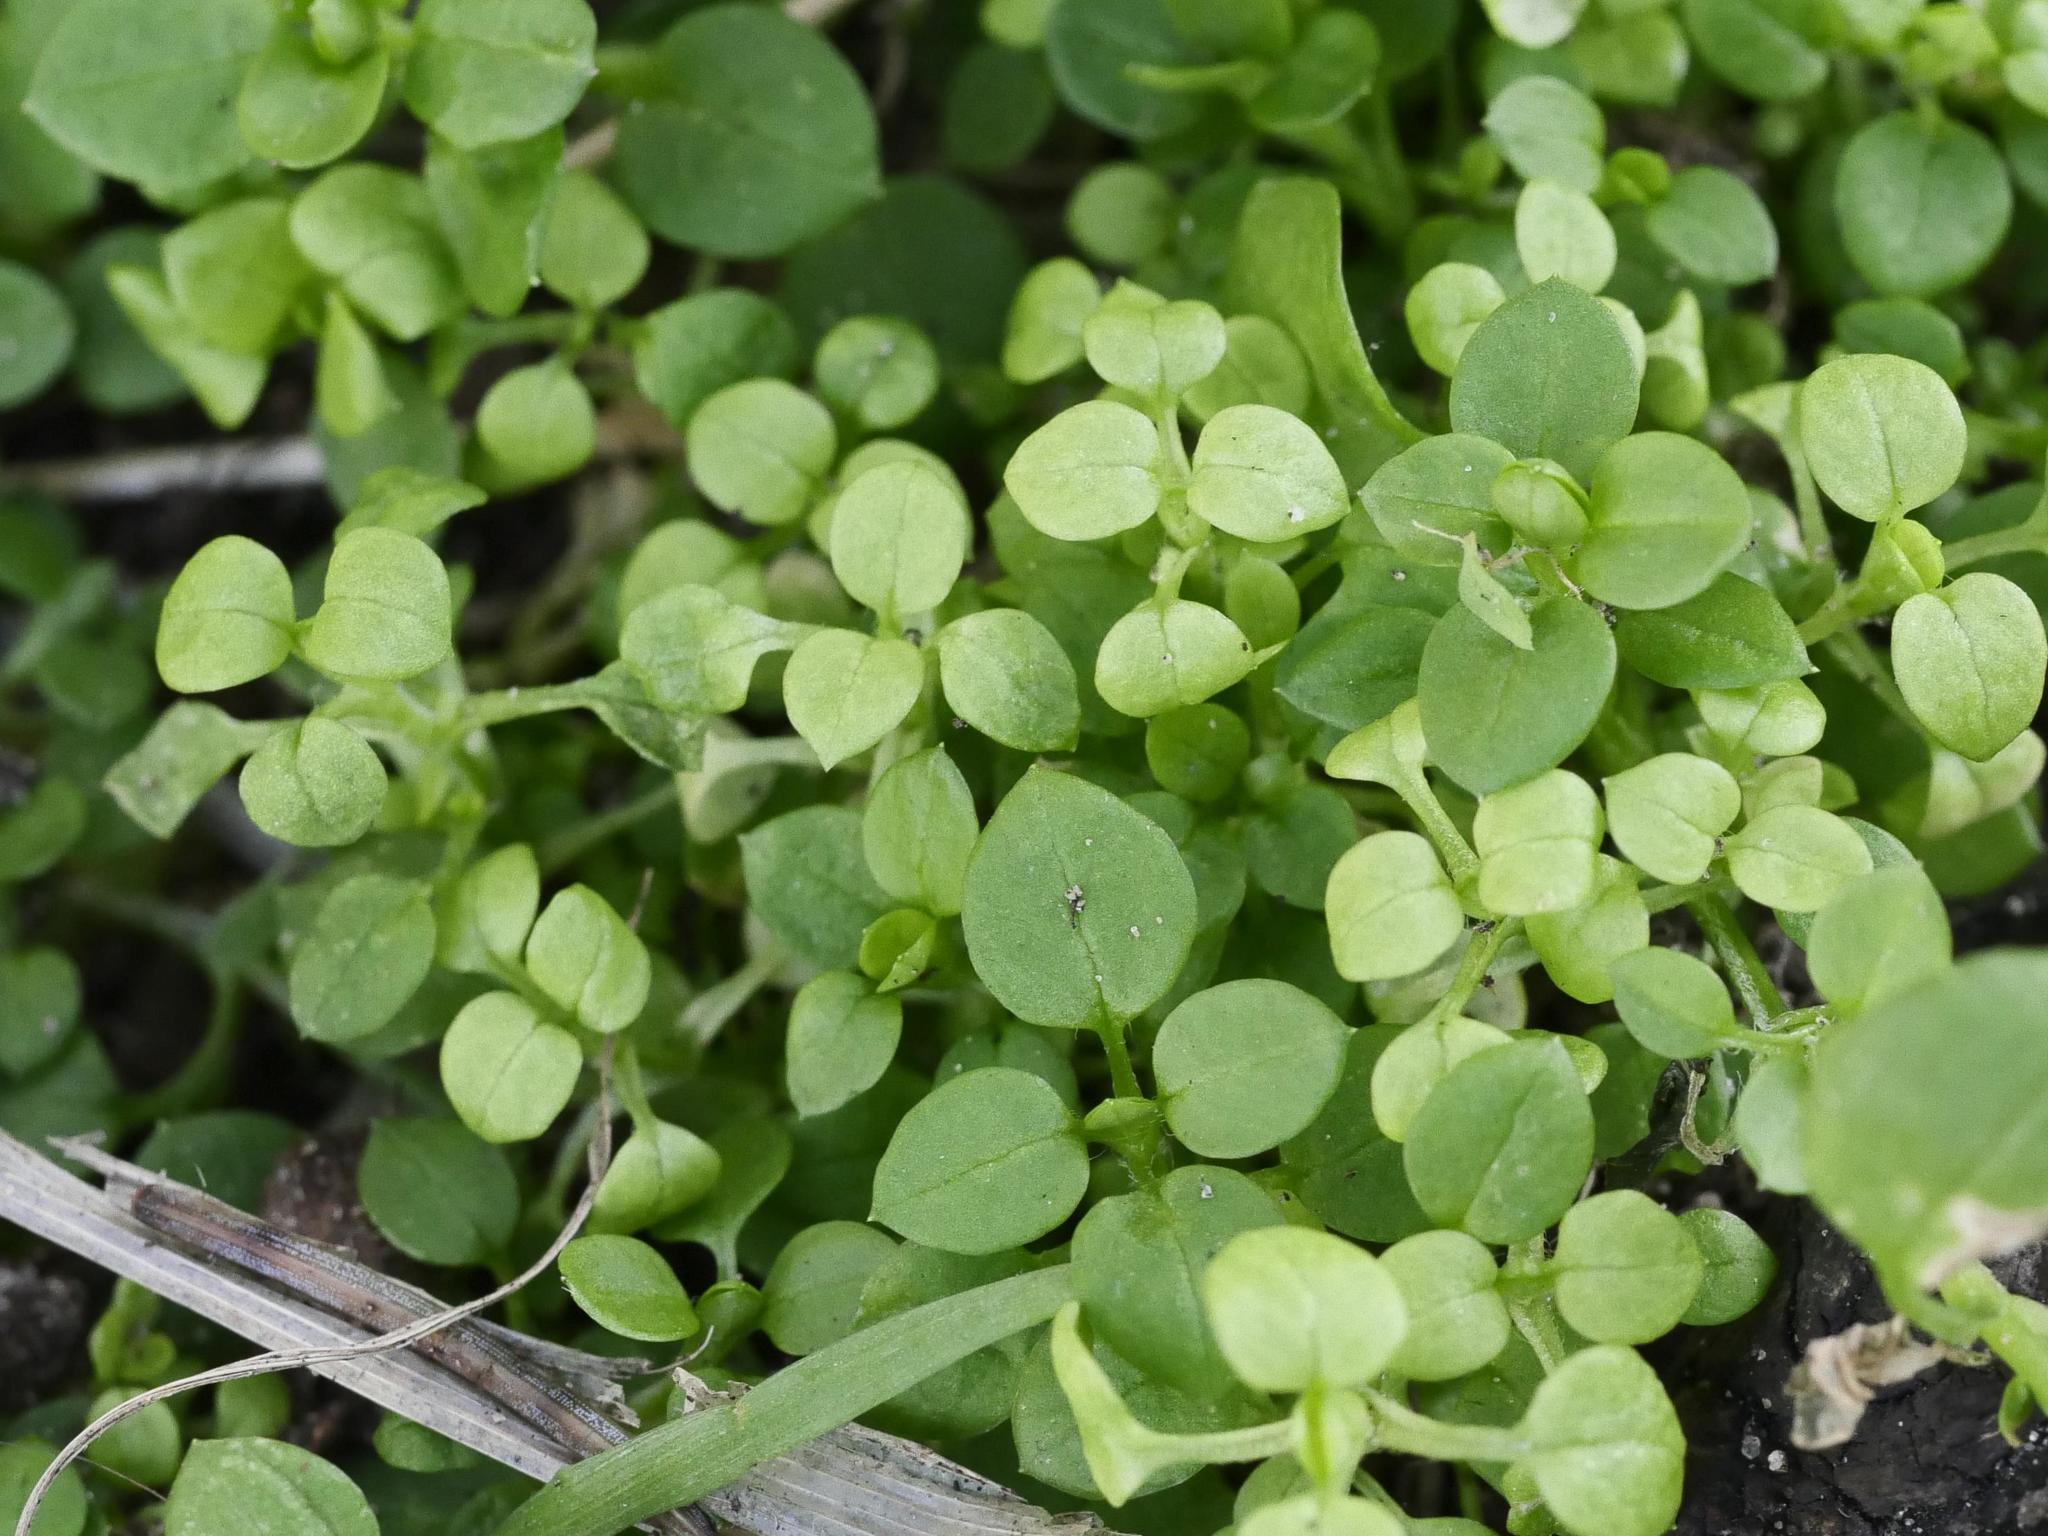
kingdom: Plantae
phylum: Tracheophyta
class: Magnoliopsida
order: Caryophyllales
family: Caryophyllaceae
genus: Stellaria
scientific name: Stellaria media
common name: Common chickweed
